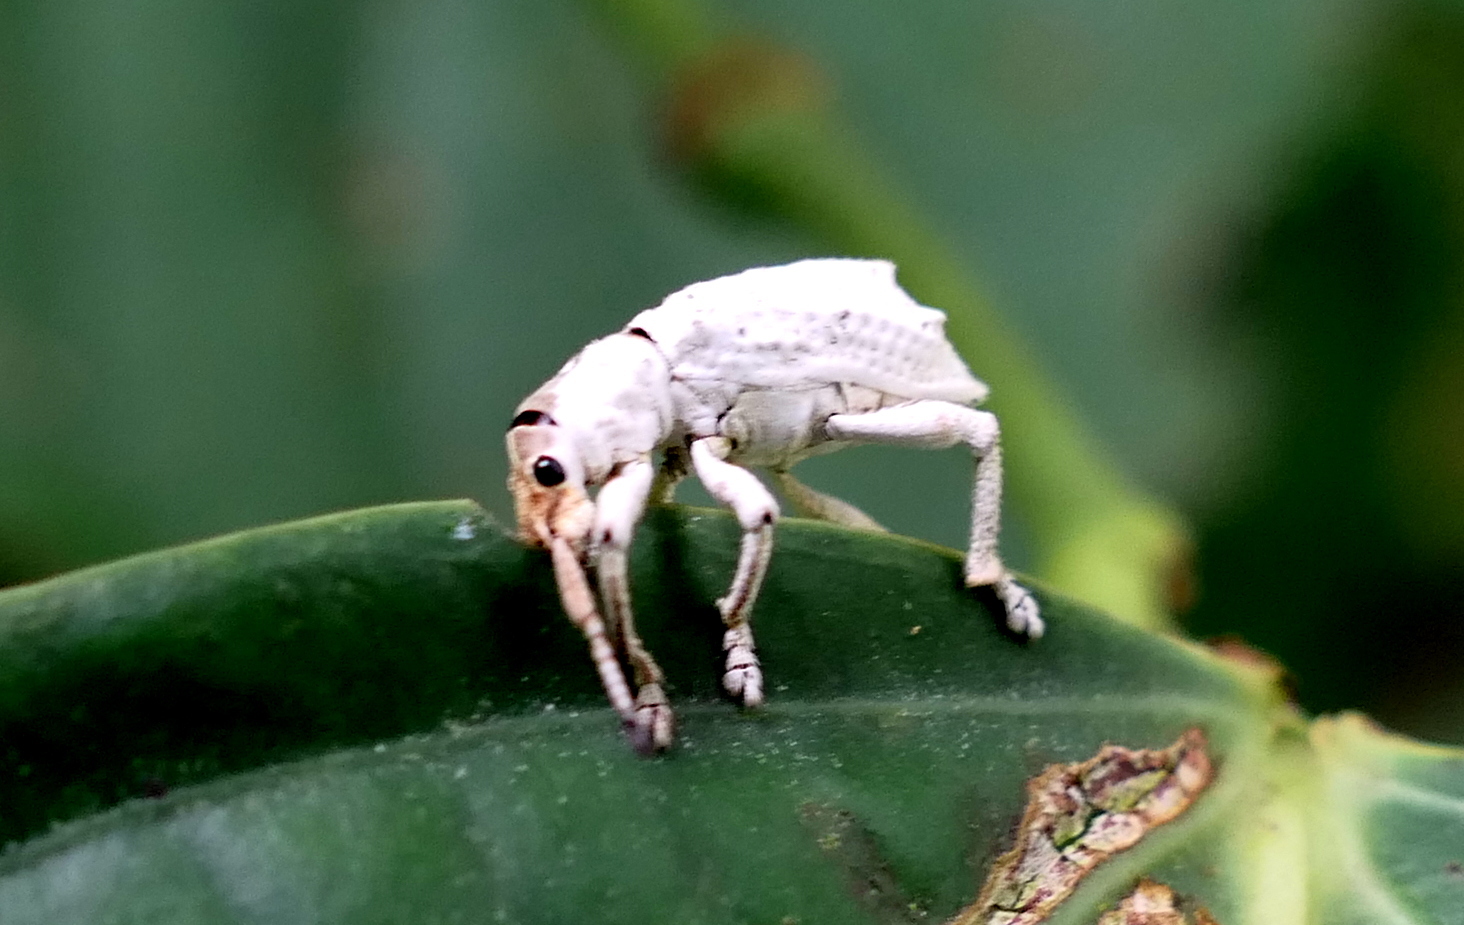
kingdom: Animalia
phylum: Arthropoda
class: Insecta
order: Coleoptera
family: Curculionidae
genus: Compsus
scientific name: Compsus niveus
